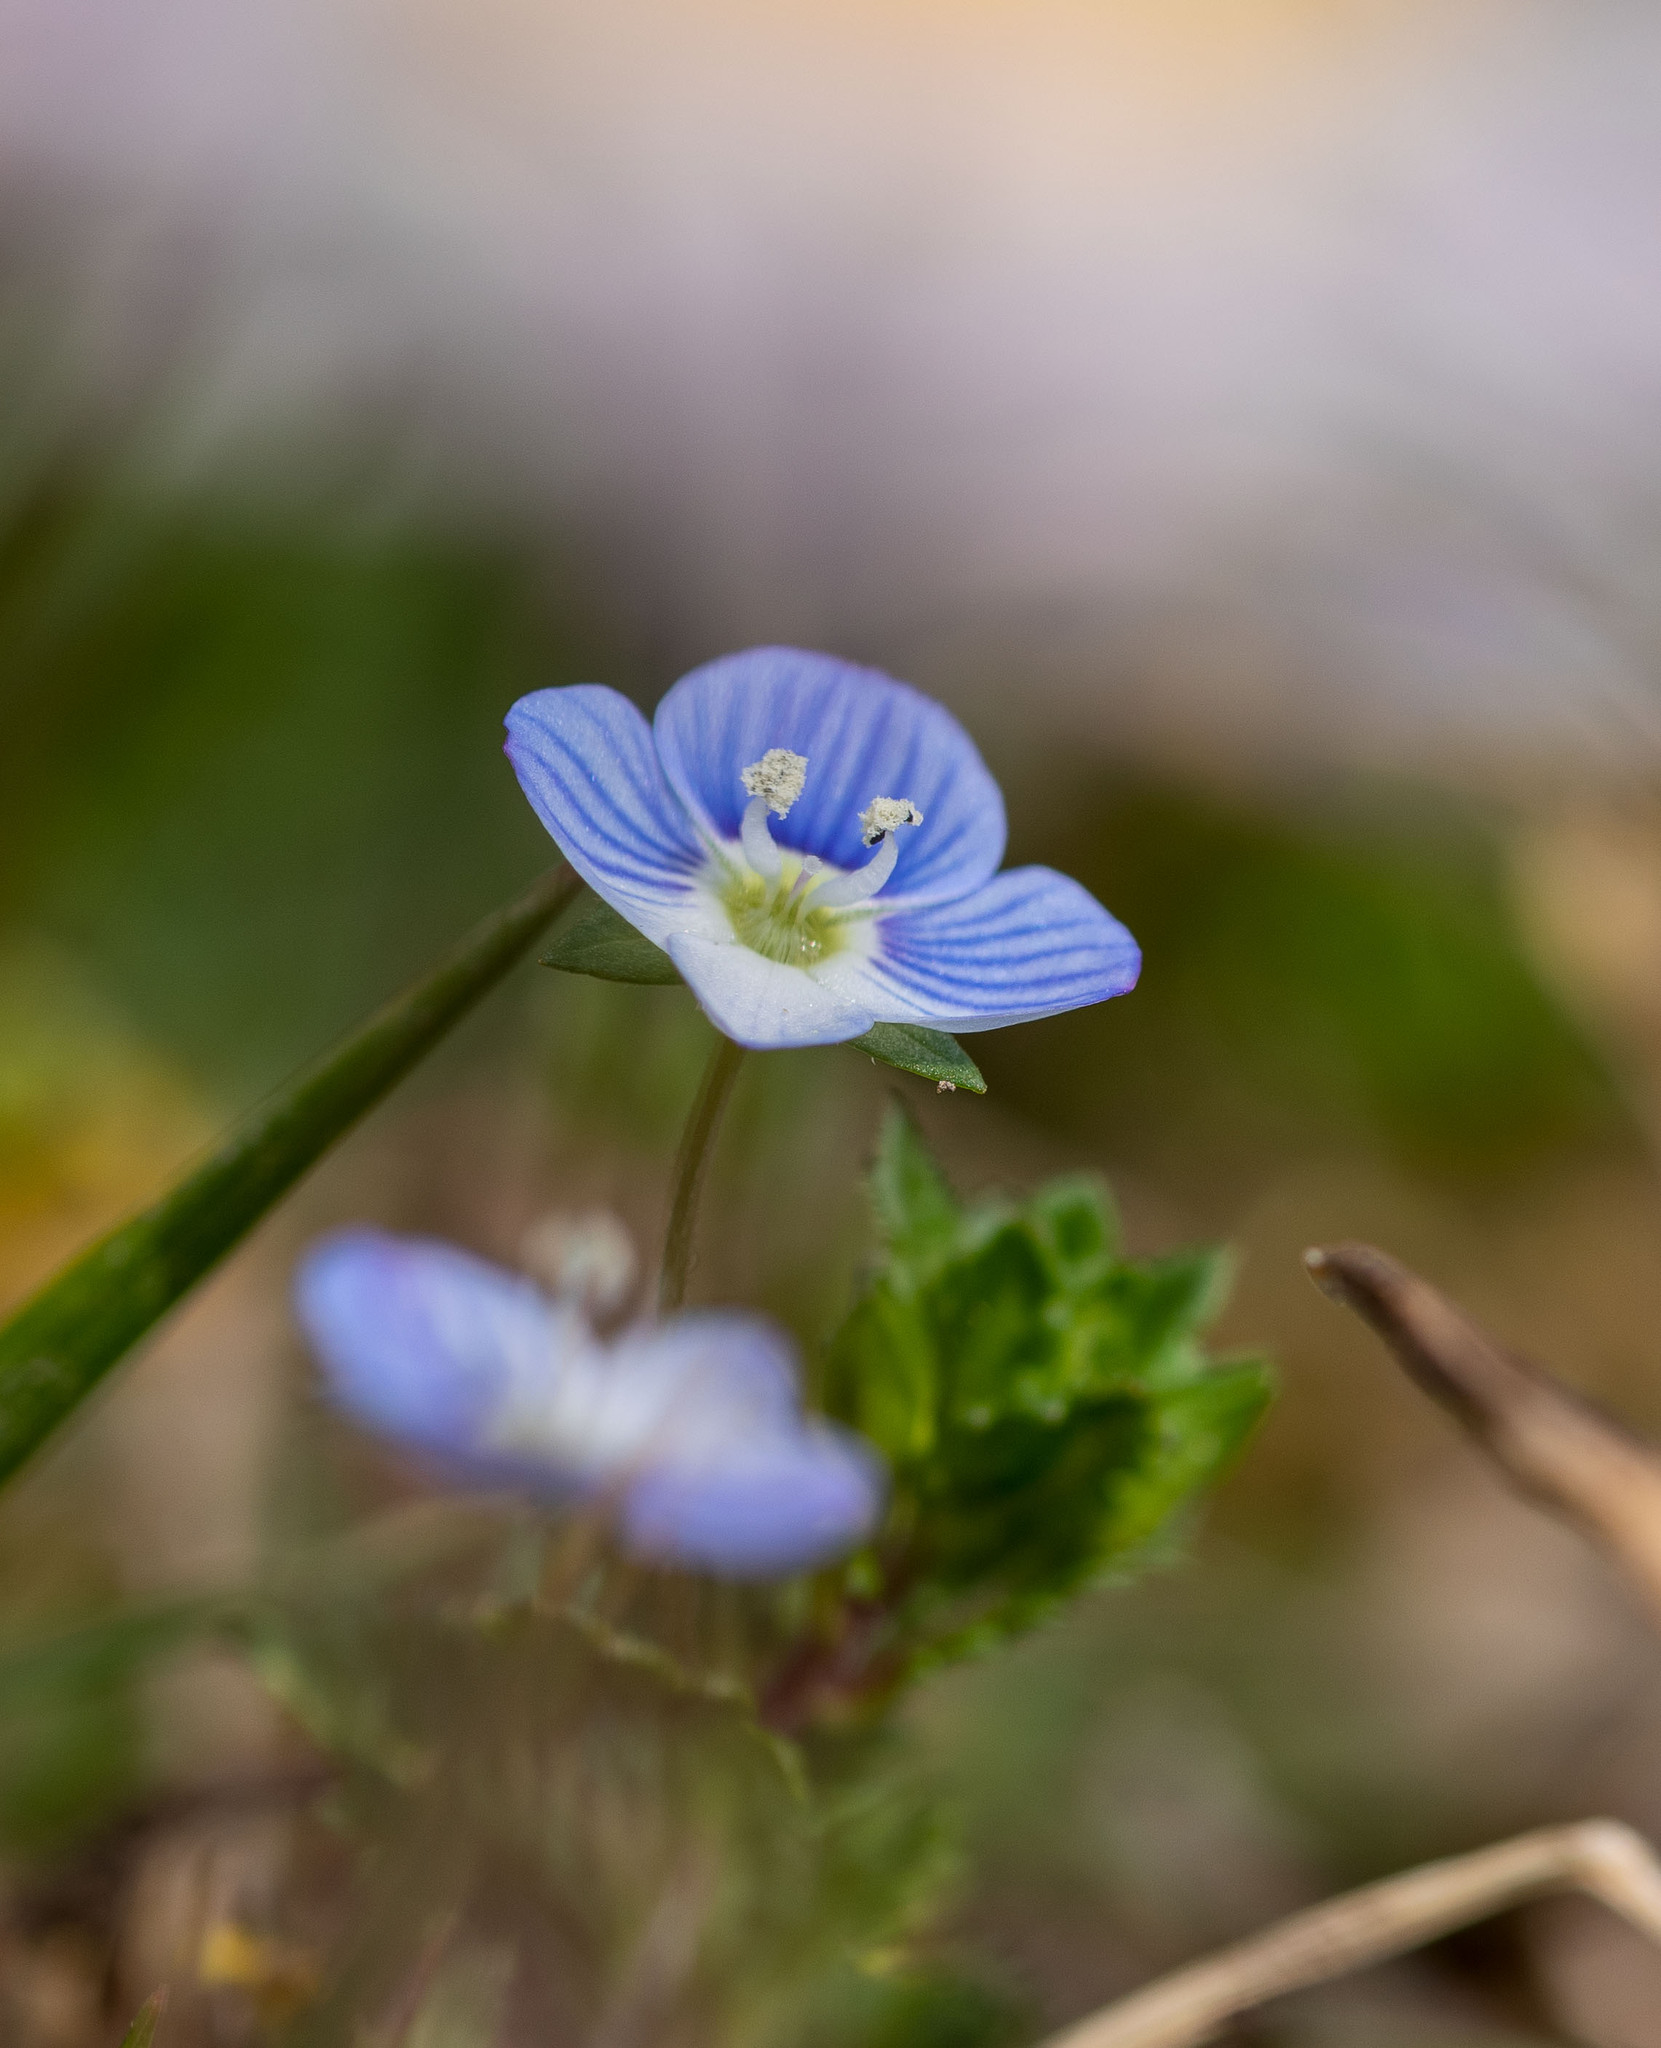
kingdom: Plantae
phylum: Tracheophyta
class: Magnoliopsida
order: Lamiales
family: Plantaginaceae
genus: Veronica
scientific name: Veronica persica
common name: Common field-speedwell
